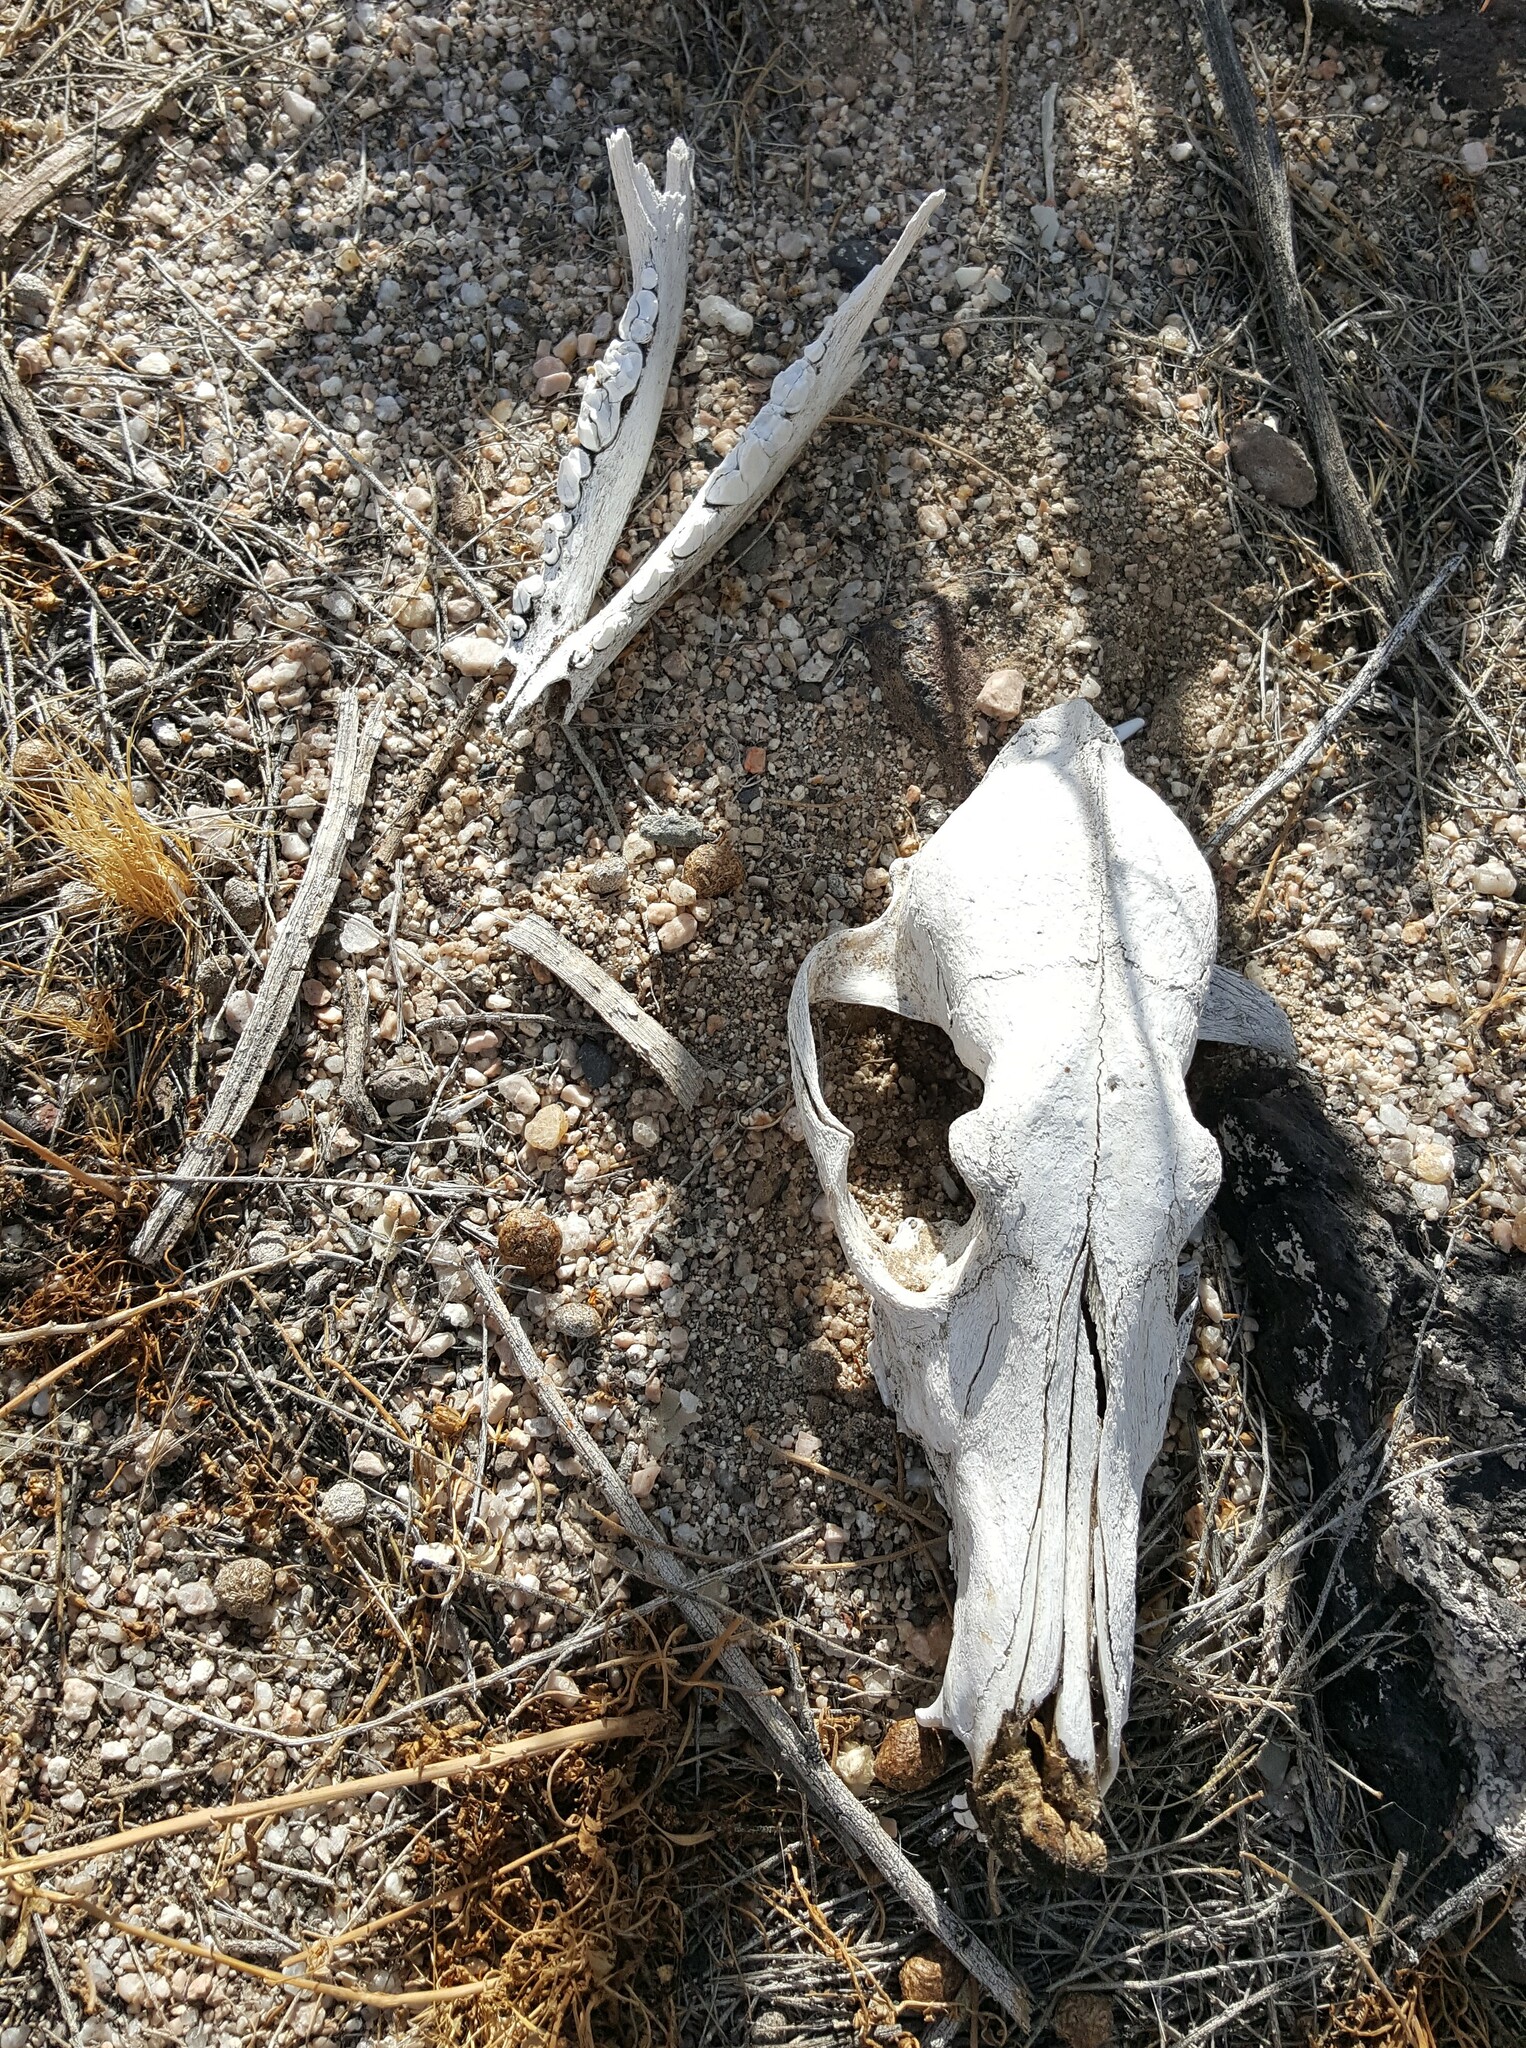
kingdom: Animalia
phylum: Chordata
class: Mammalia
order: Carnivora
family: Canidae
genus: Canis
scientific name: Canis latrans
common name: Coyote
